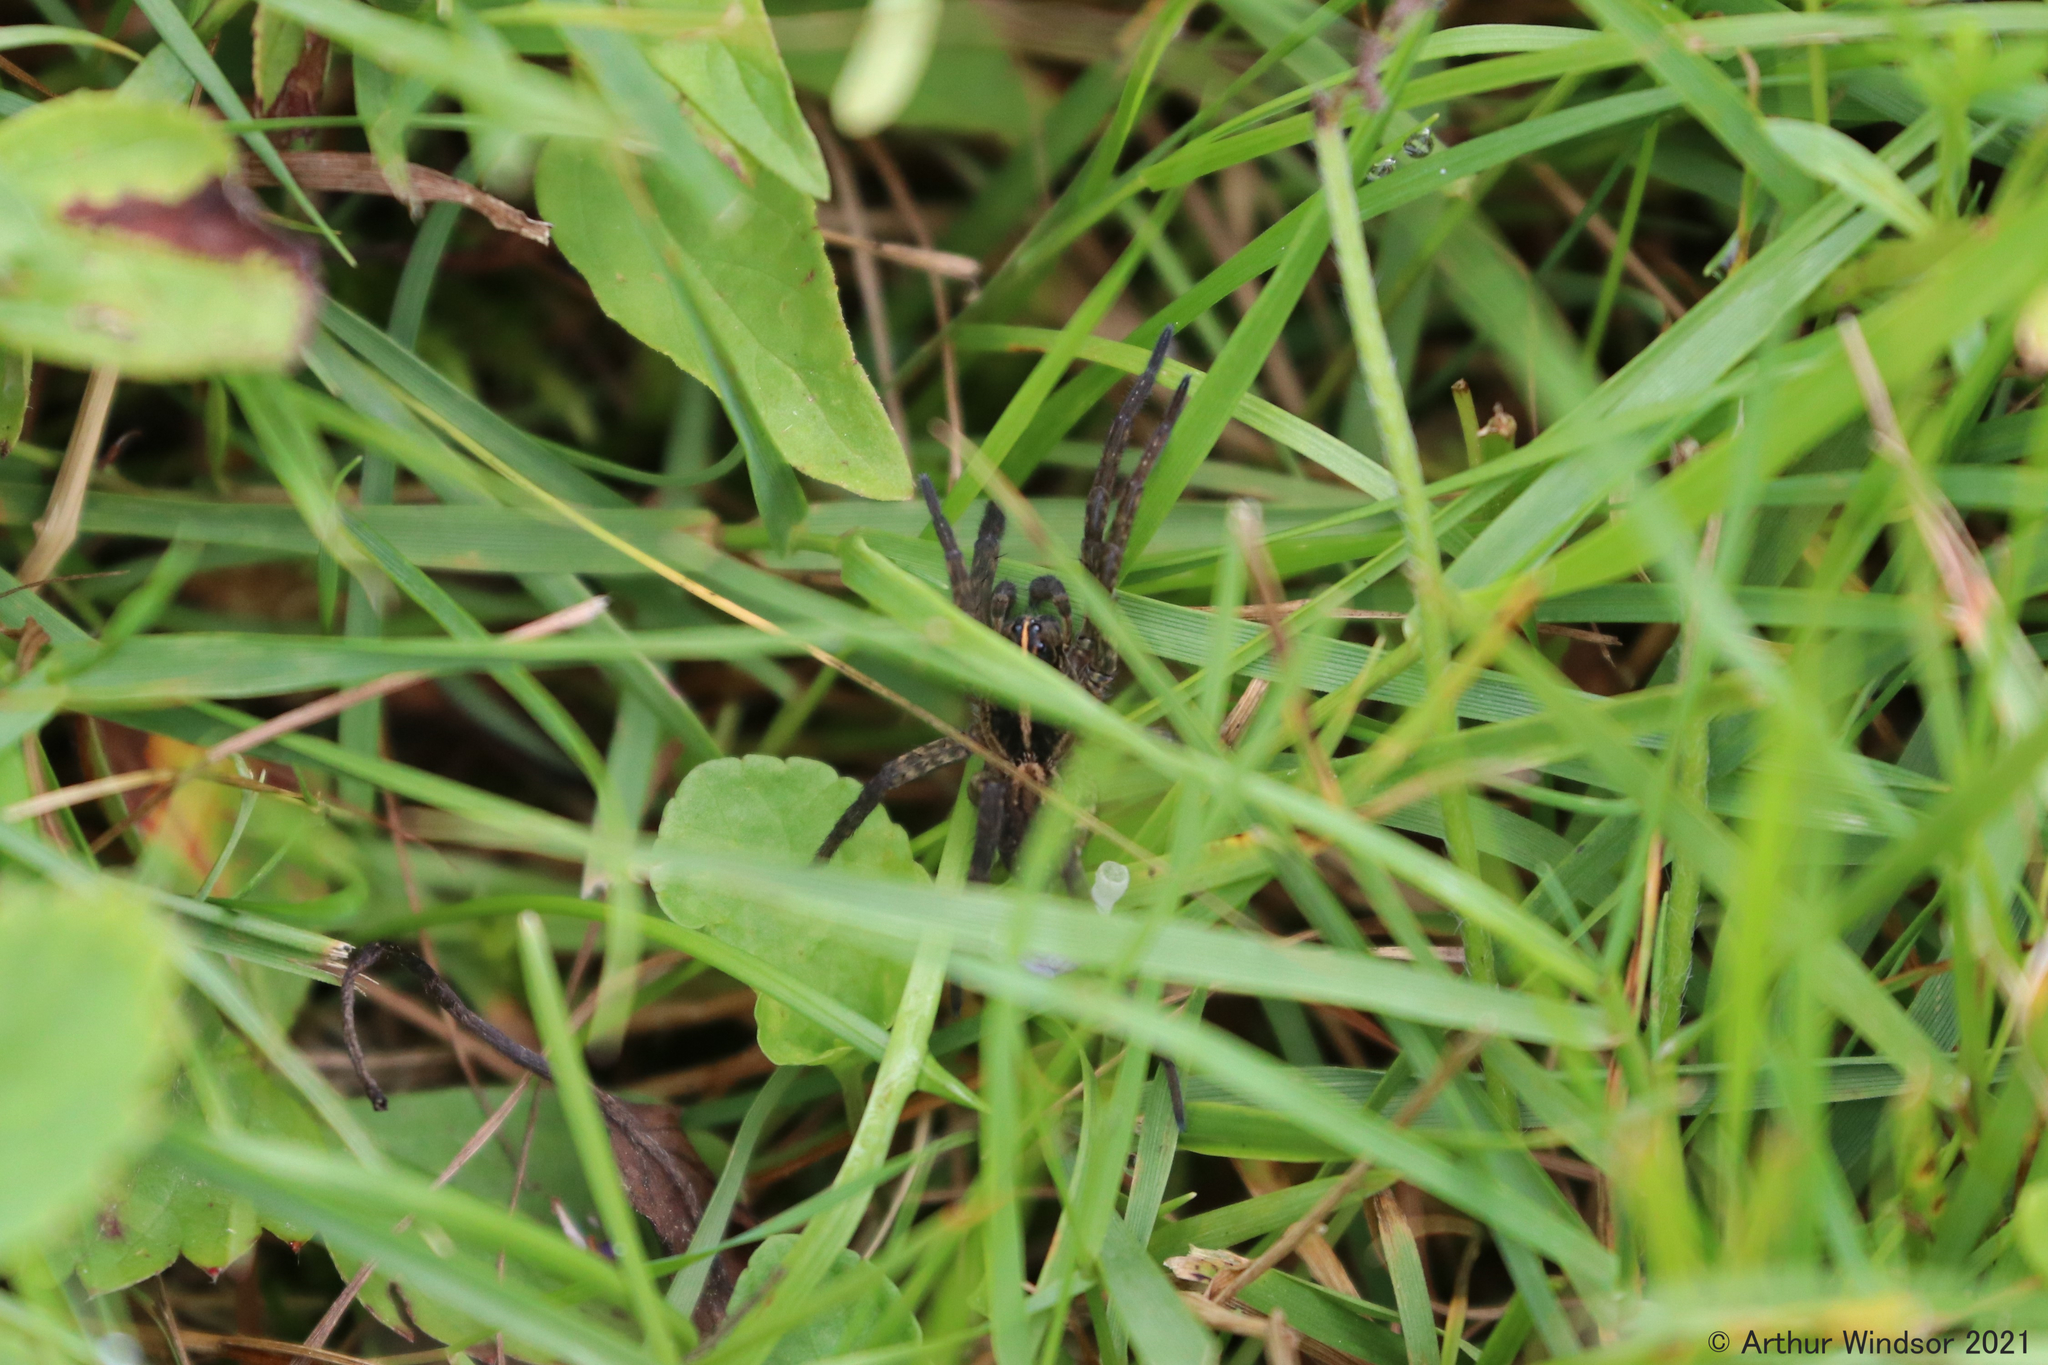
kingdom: Animalia
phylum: Arthropoda
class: Arachnida
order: Araneae
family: Lycosidae
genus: Tigrosa
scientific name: Tigrosa helluo
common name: Wetland giant wolf spider
